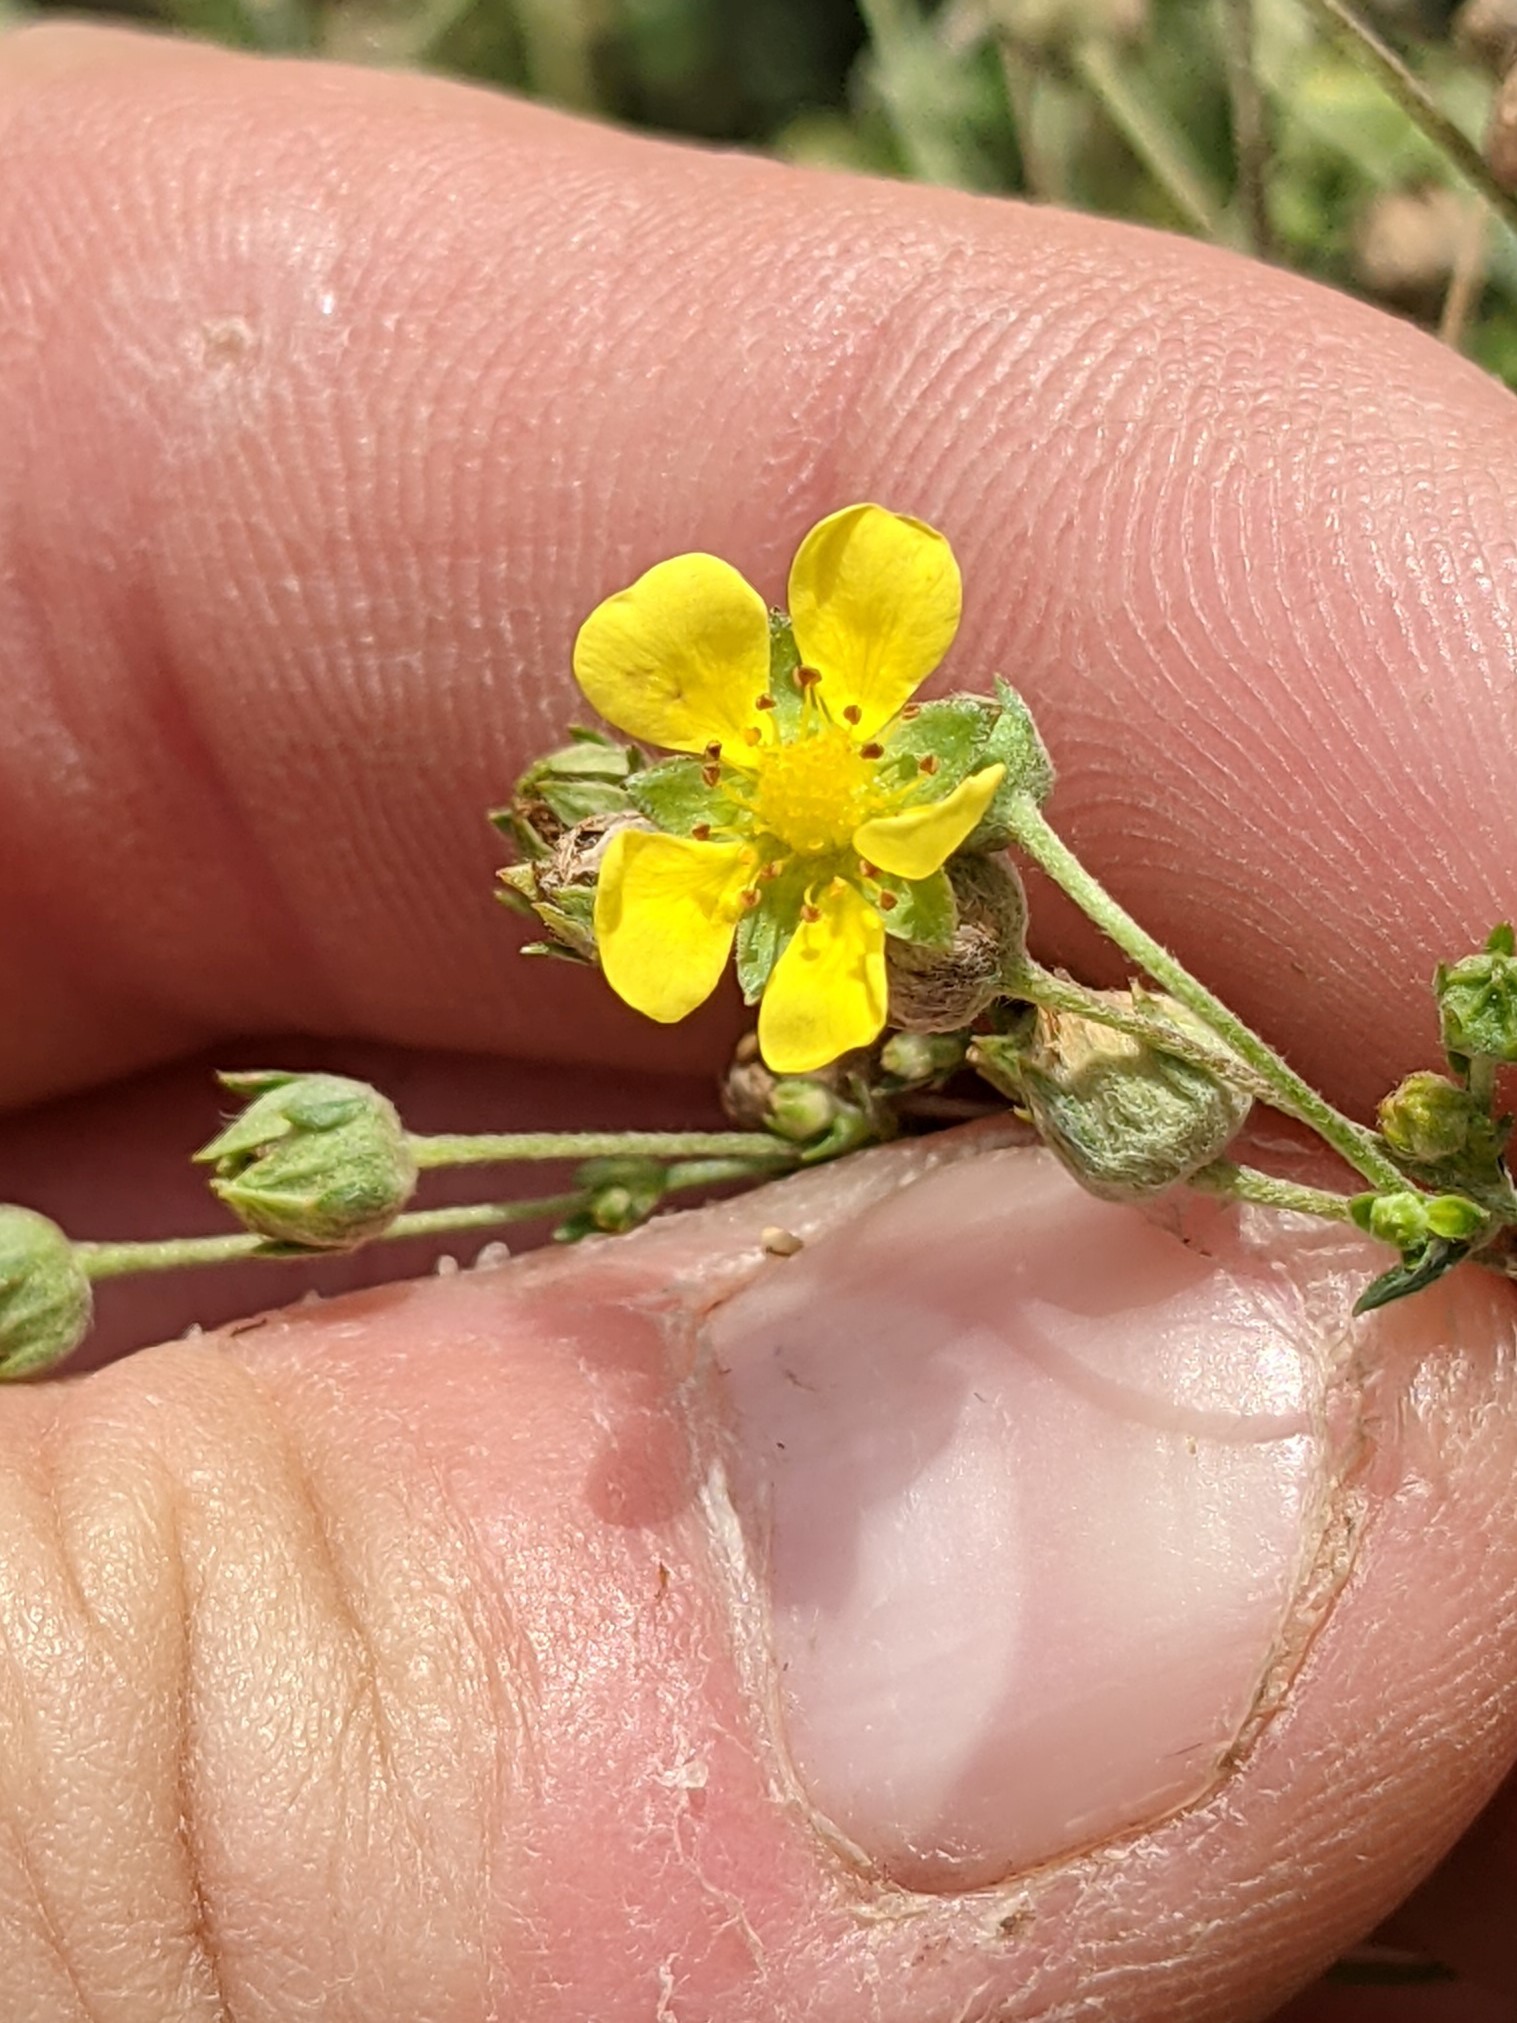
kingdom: Plantae
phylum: Tracheophyta
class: Magnoliopsida
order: Rosales
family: Rosaceae
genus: Potentilla
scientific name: Potentilla argentea
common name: Hoary cinquefoil
